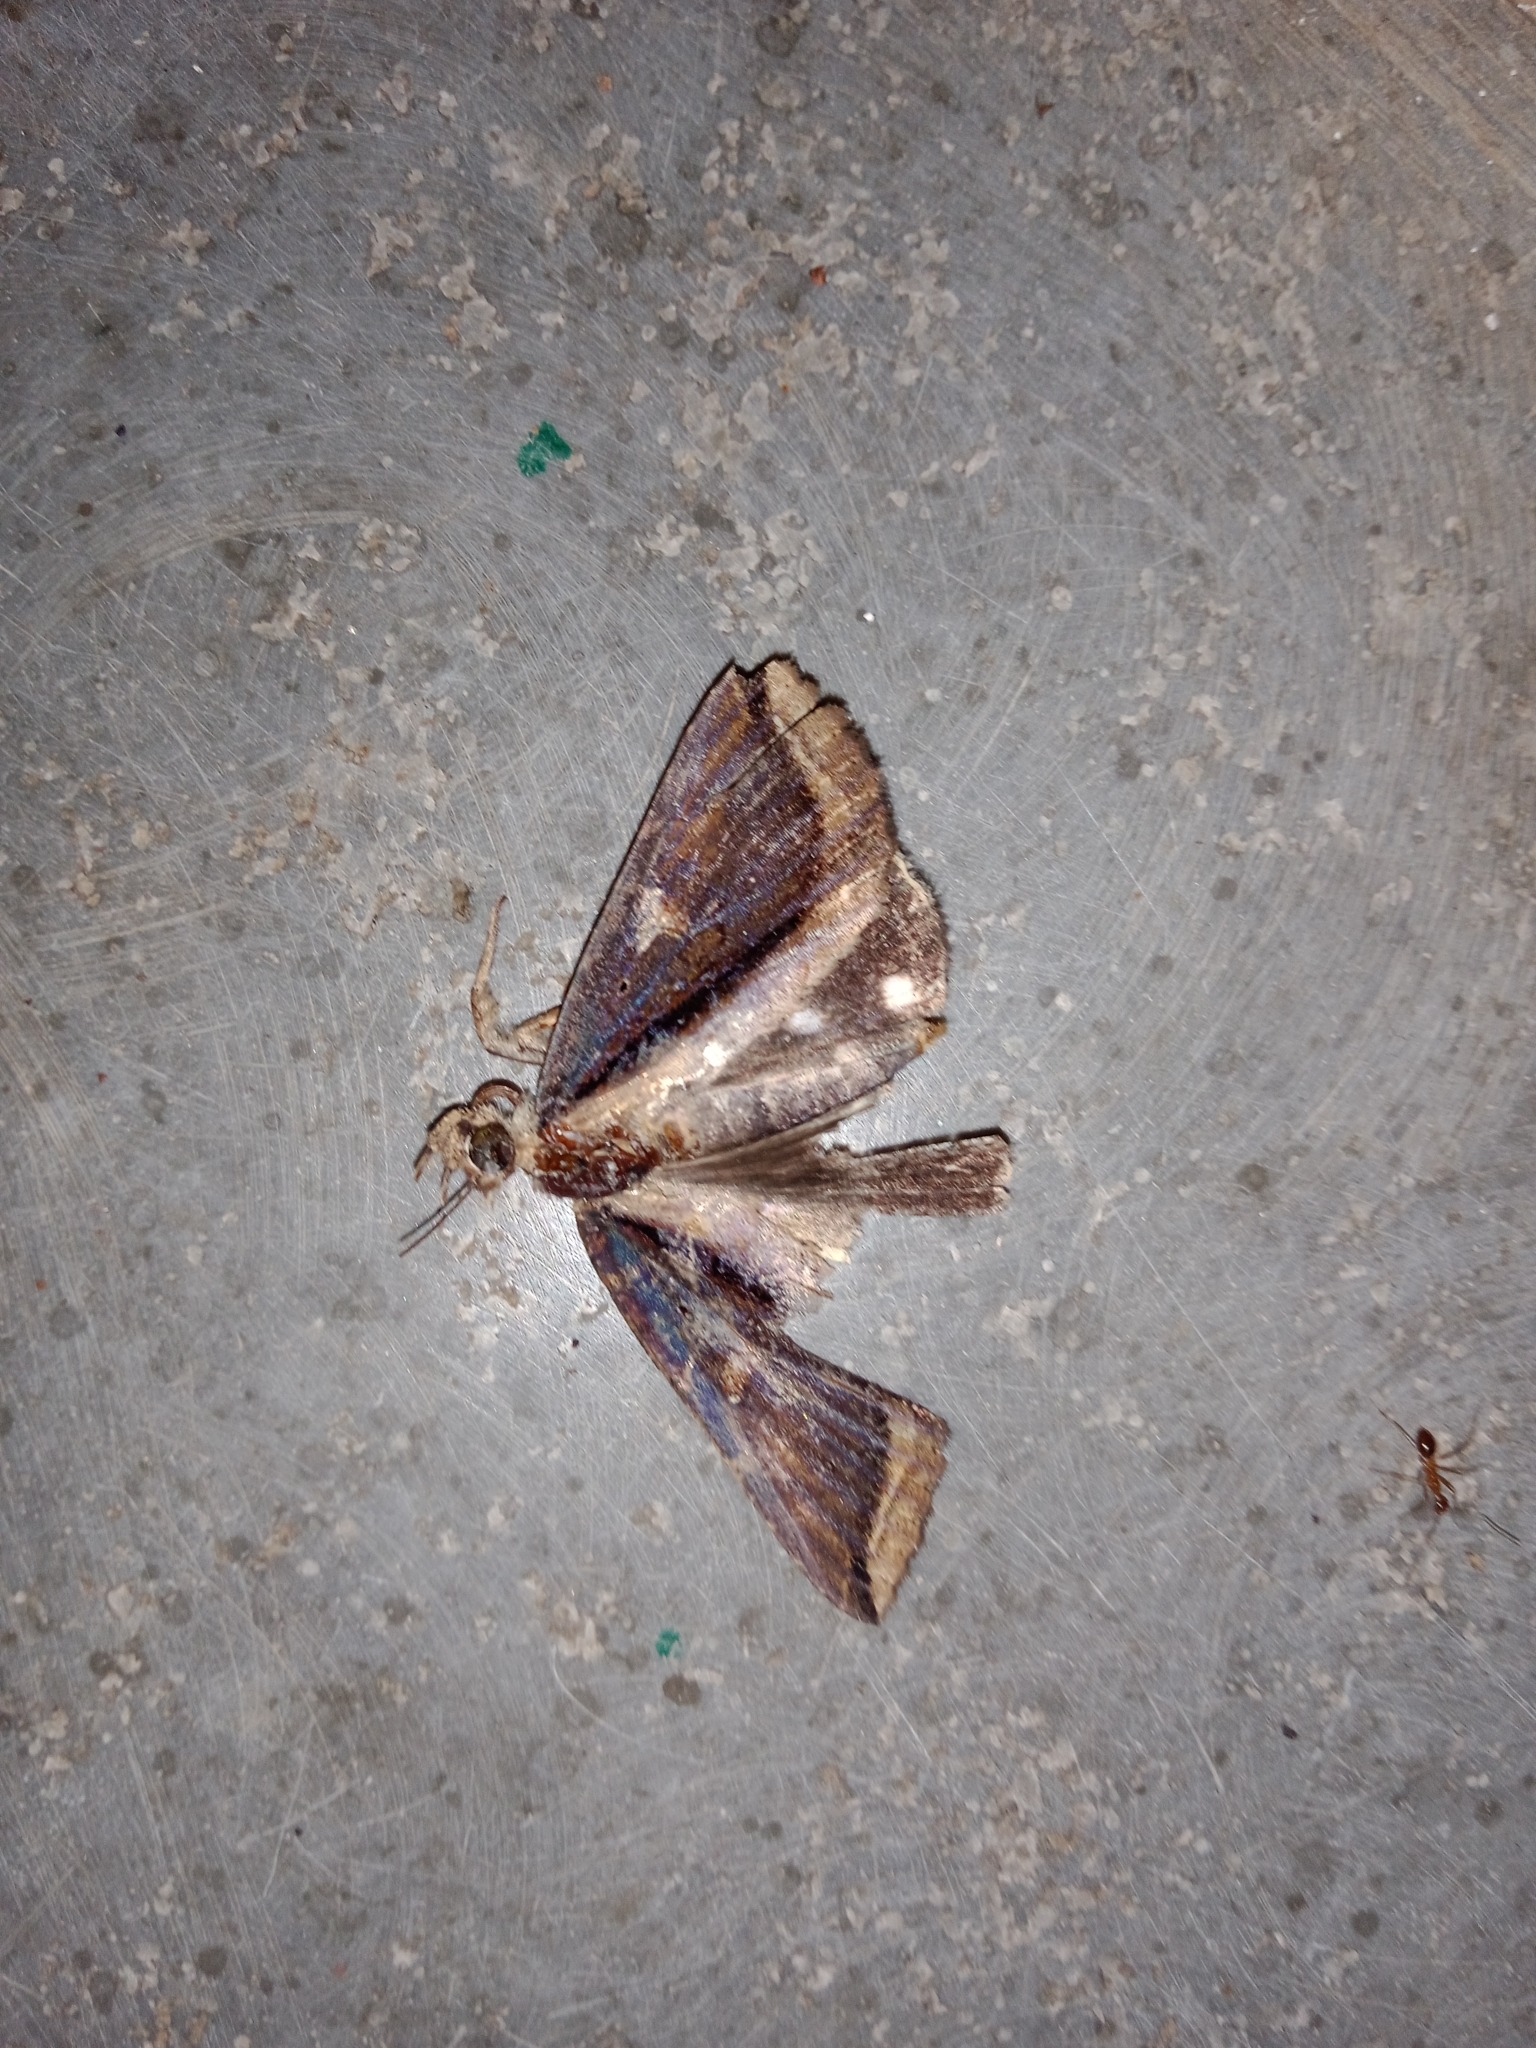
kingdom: Animalia
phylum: Arthropoda
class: Insecta
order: Lepidoptera
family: Erebidae
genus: Ercheia
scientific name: Ercheia cyllaria
